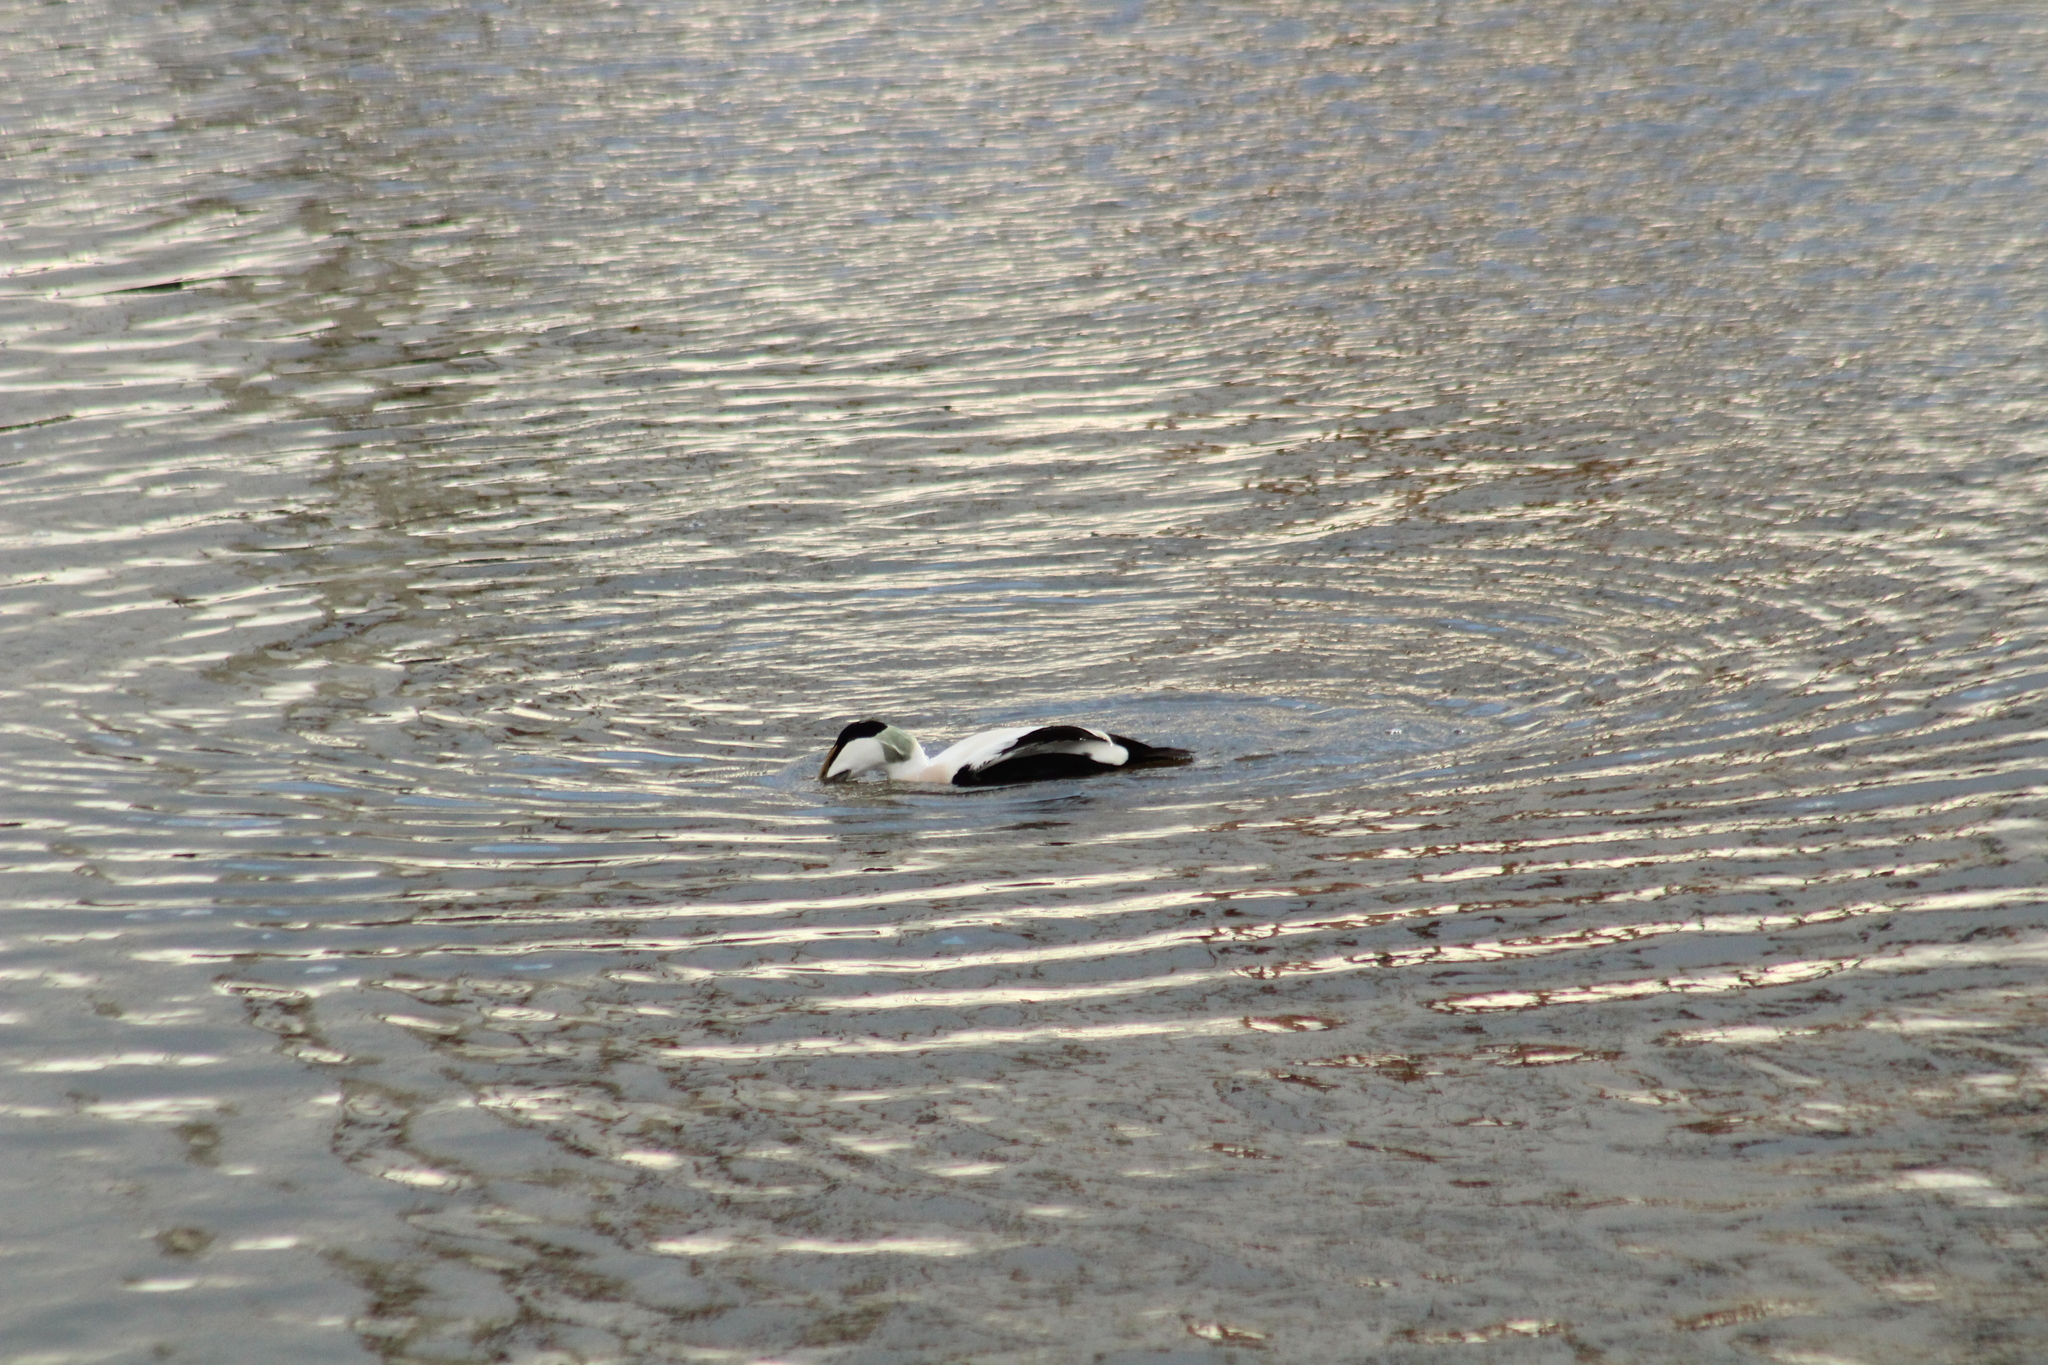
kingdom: Animalia
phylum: Chordata
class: Aves
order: Anseriformes
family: Anatidae
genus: Somateria
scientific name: Somateria mollissima
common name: Common eider
